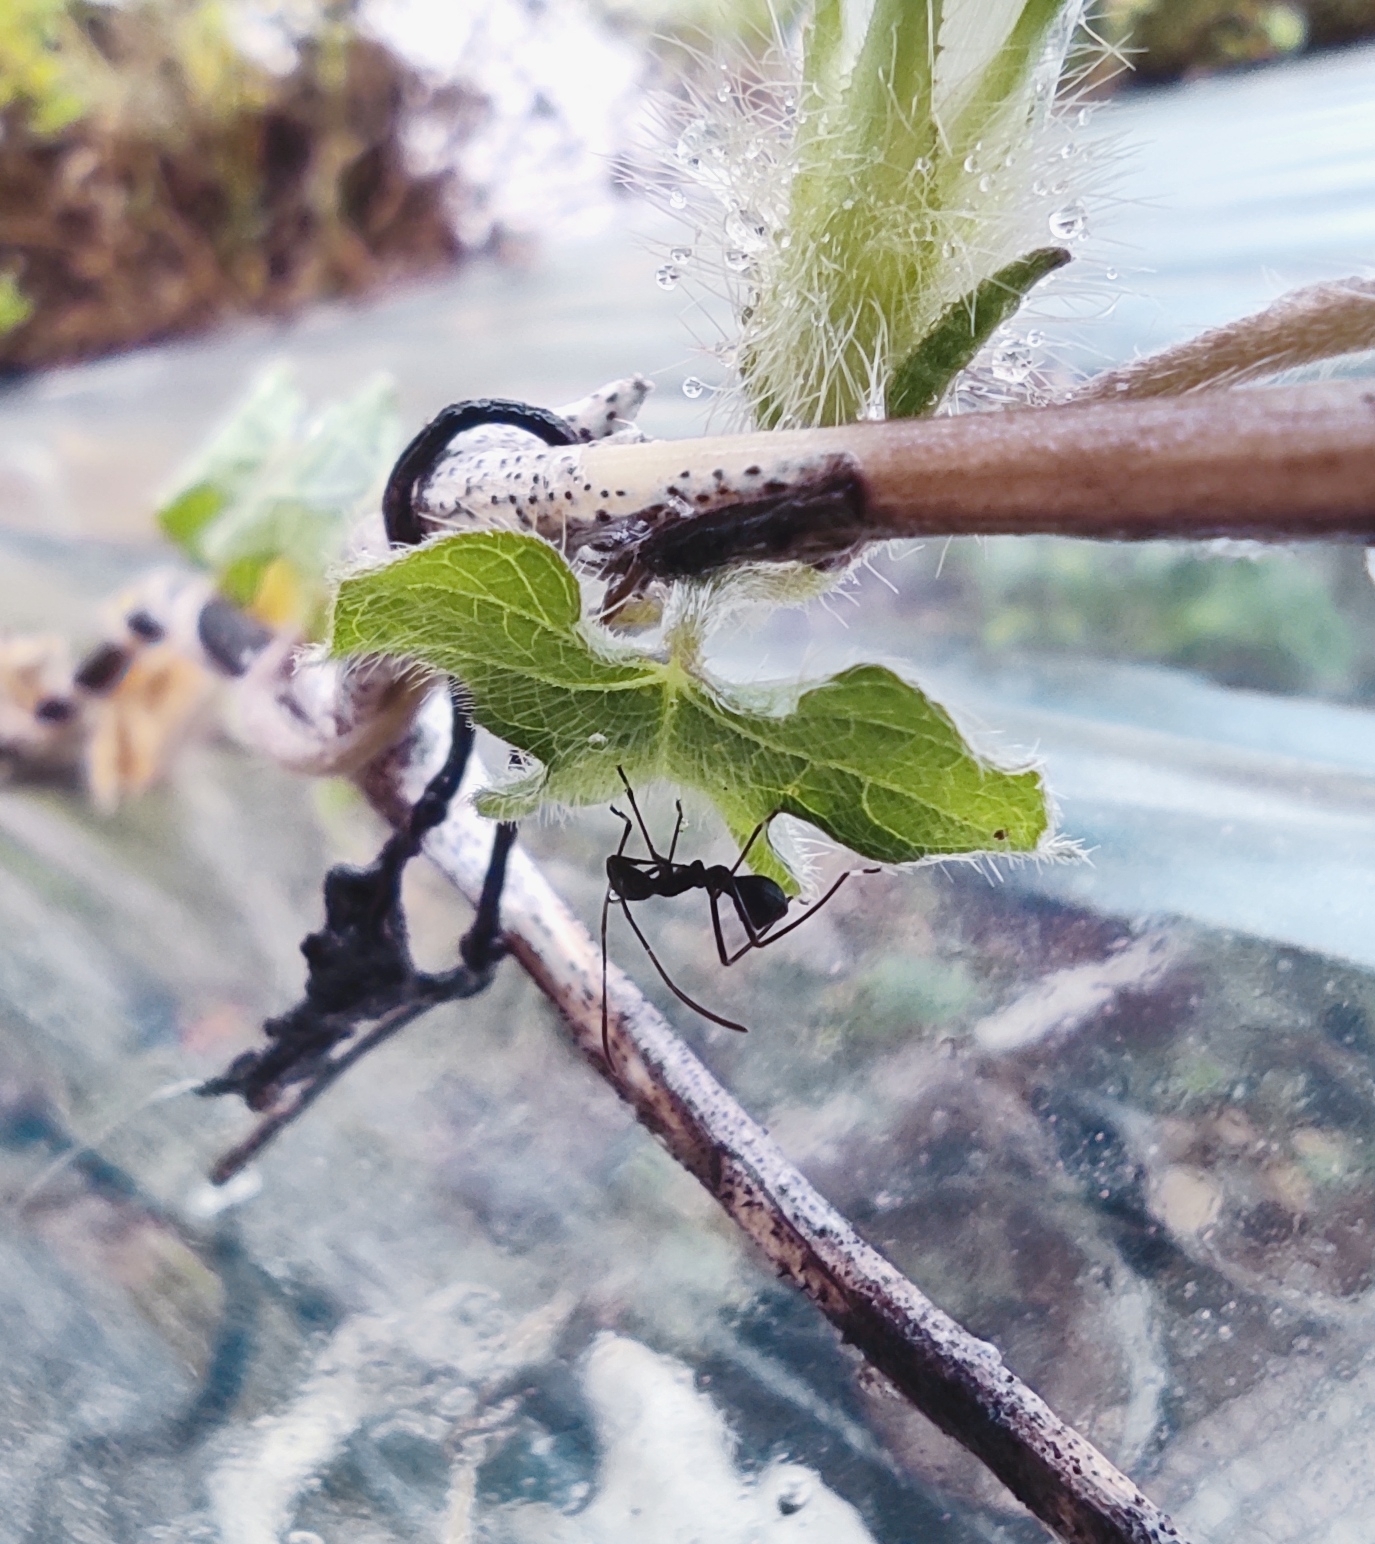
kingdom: Animalia
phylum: Arthropoda
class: Insecta
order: Hemiptera
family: Alydidae
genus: Riptortus
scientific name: Riptortus pedestris
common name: Bean bug
